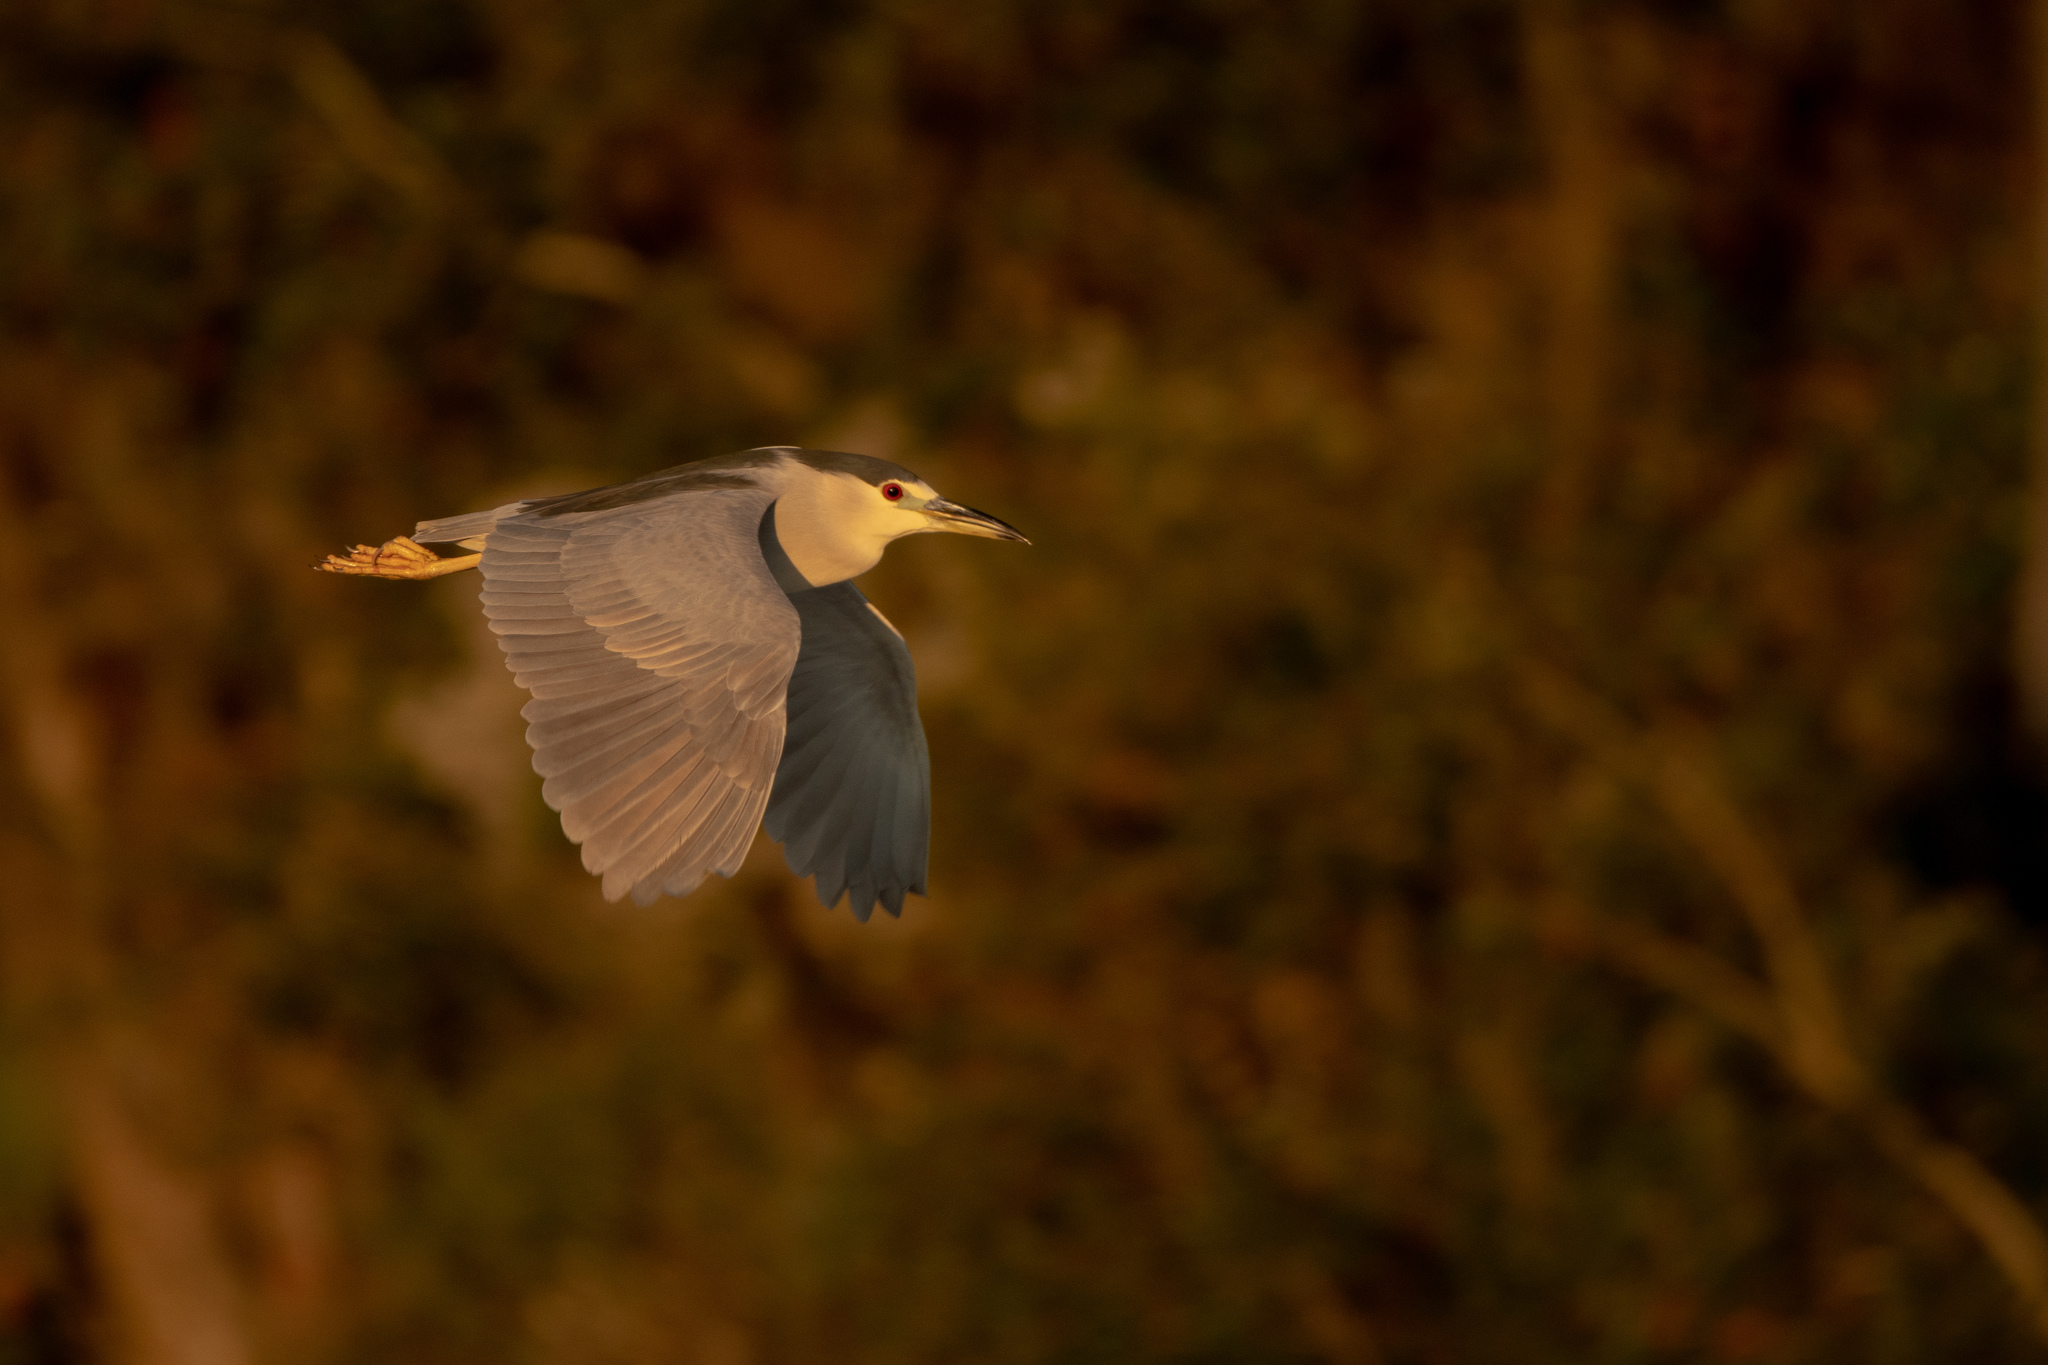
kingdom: Animalia
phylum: Chordata
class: Aves
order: Pelecaniformes
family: Ardeidae
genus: Nycticorax
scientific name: Nycticorax nycticorax
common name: Black-crowned night heron
